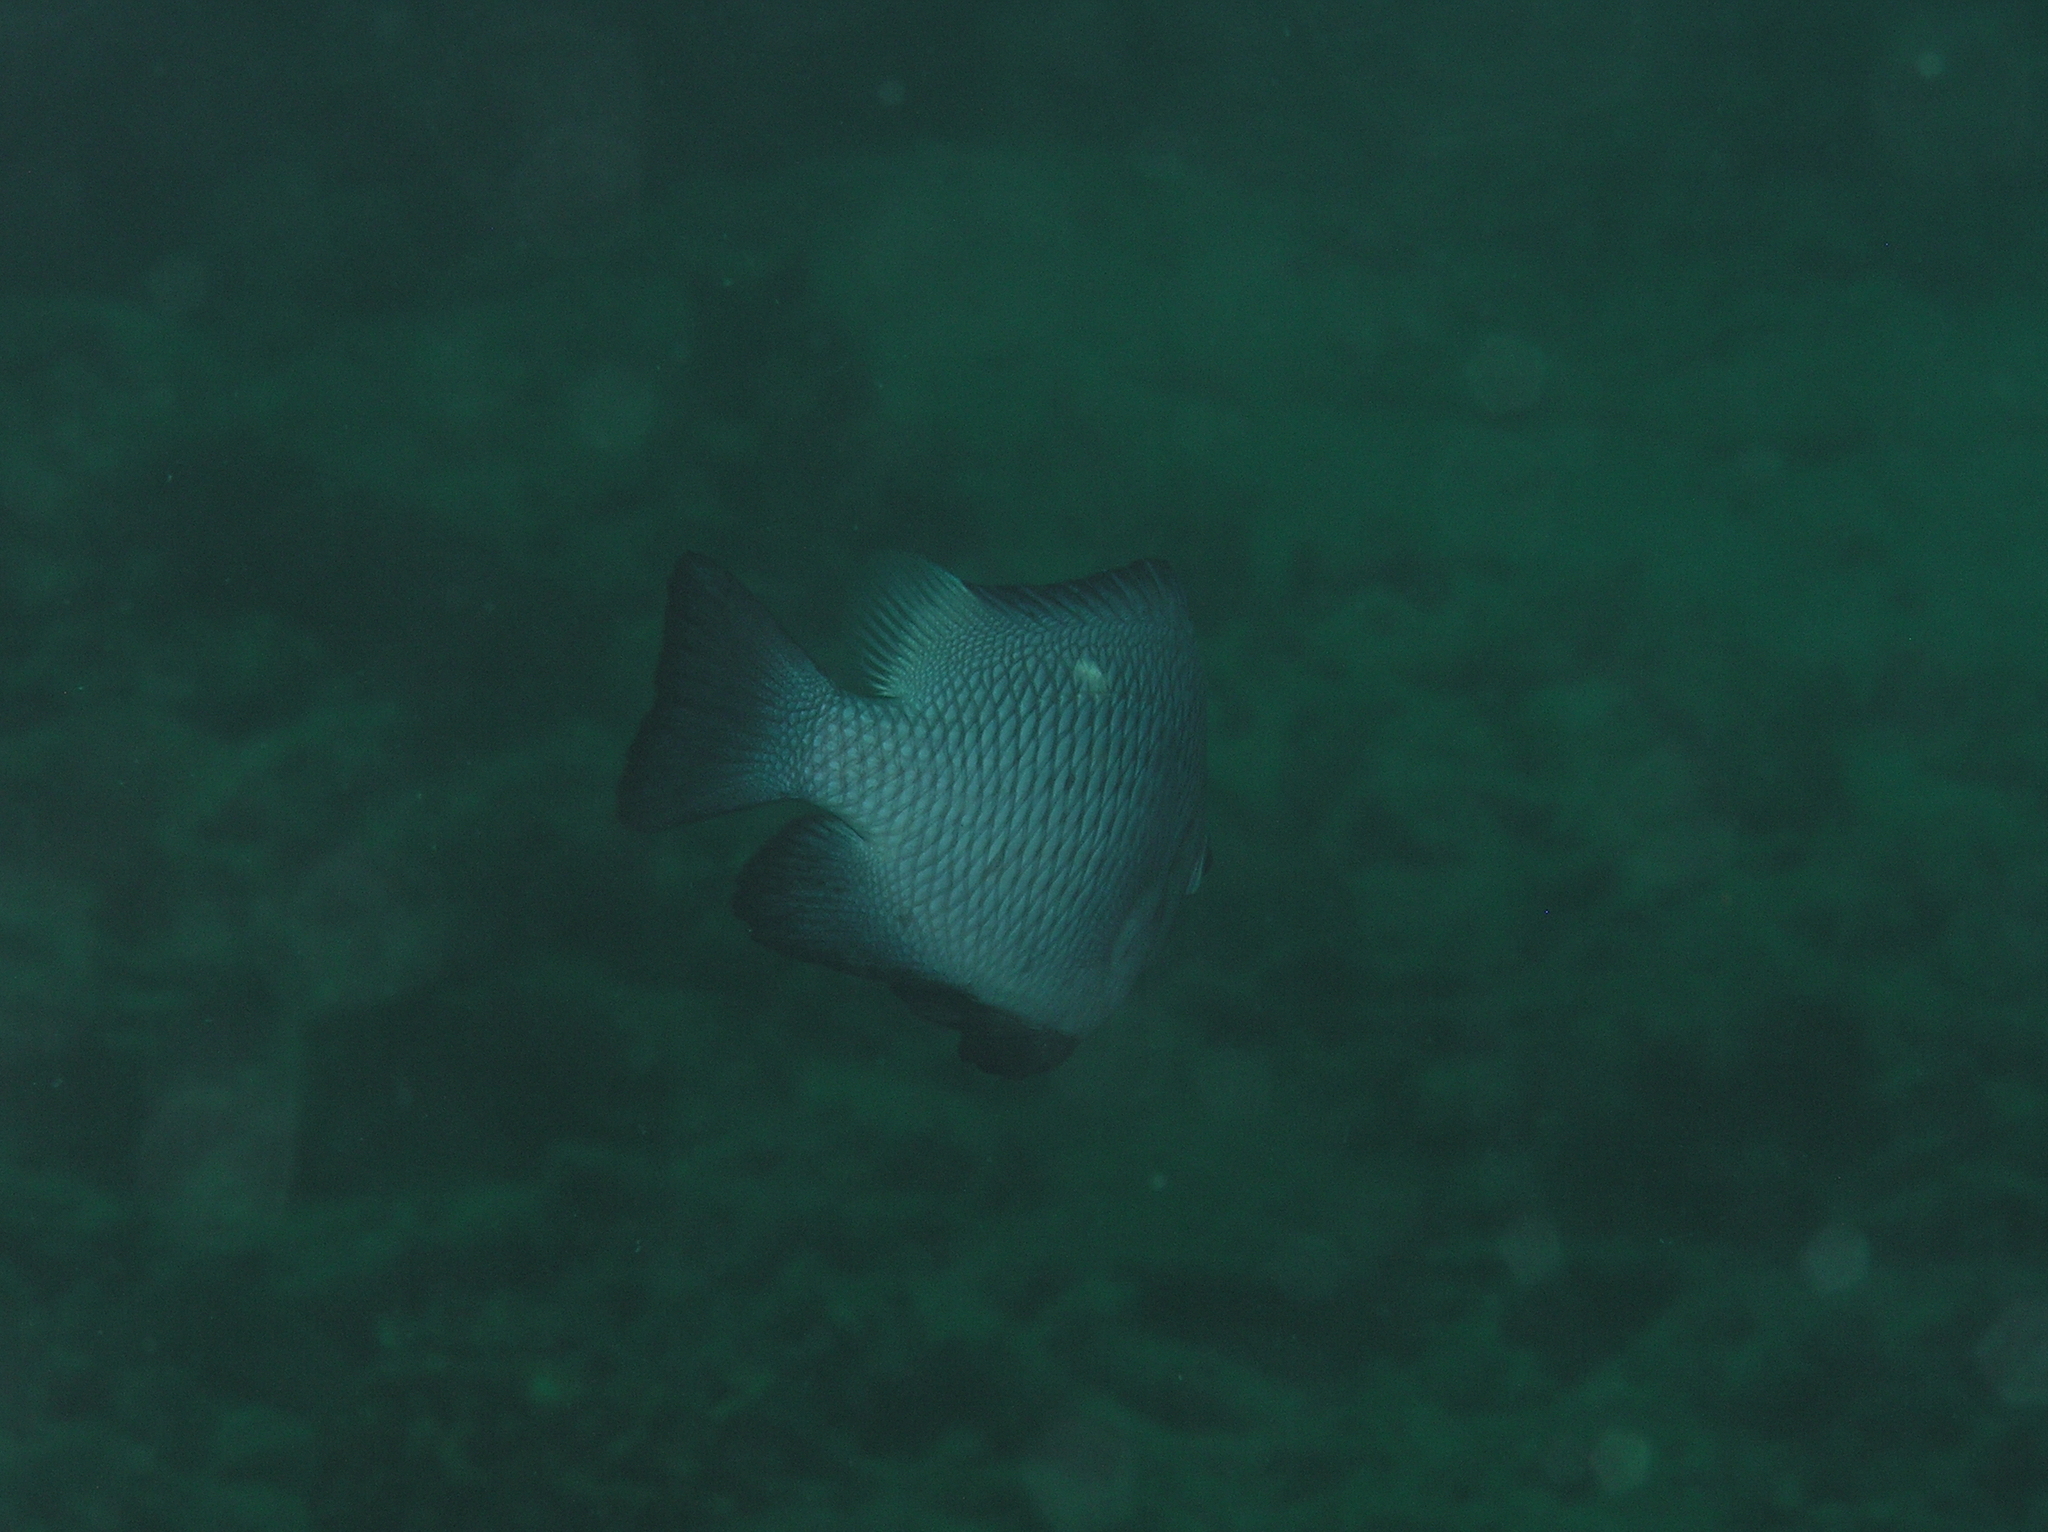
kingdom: Animalia
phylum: Chordata
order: Perciformes
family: Pomacentridae
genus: Dascyllus
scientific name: Dascyllus trimaculatus
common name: Threespot dascyllus
